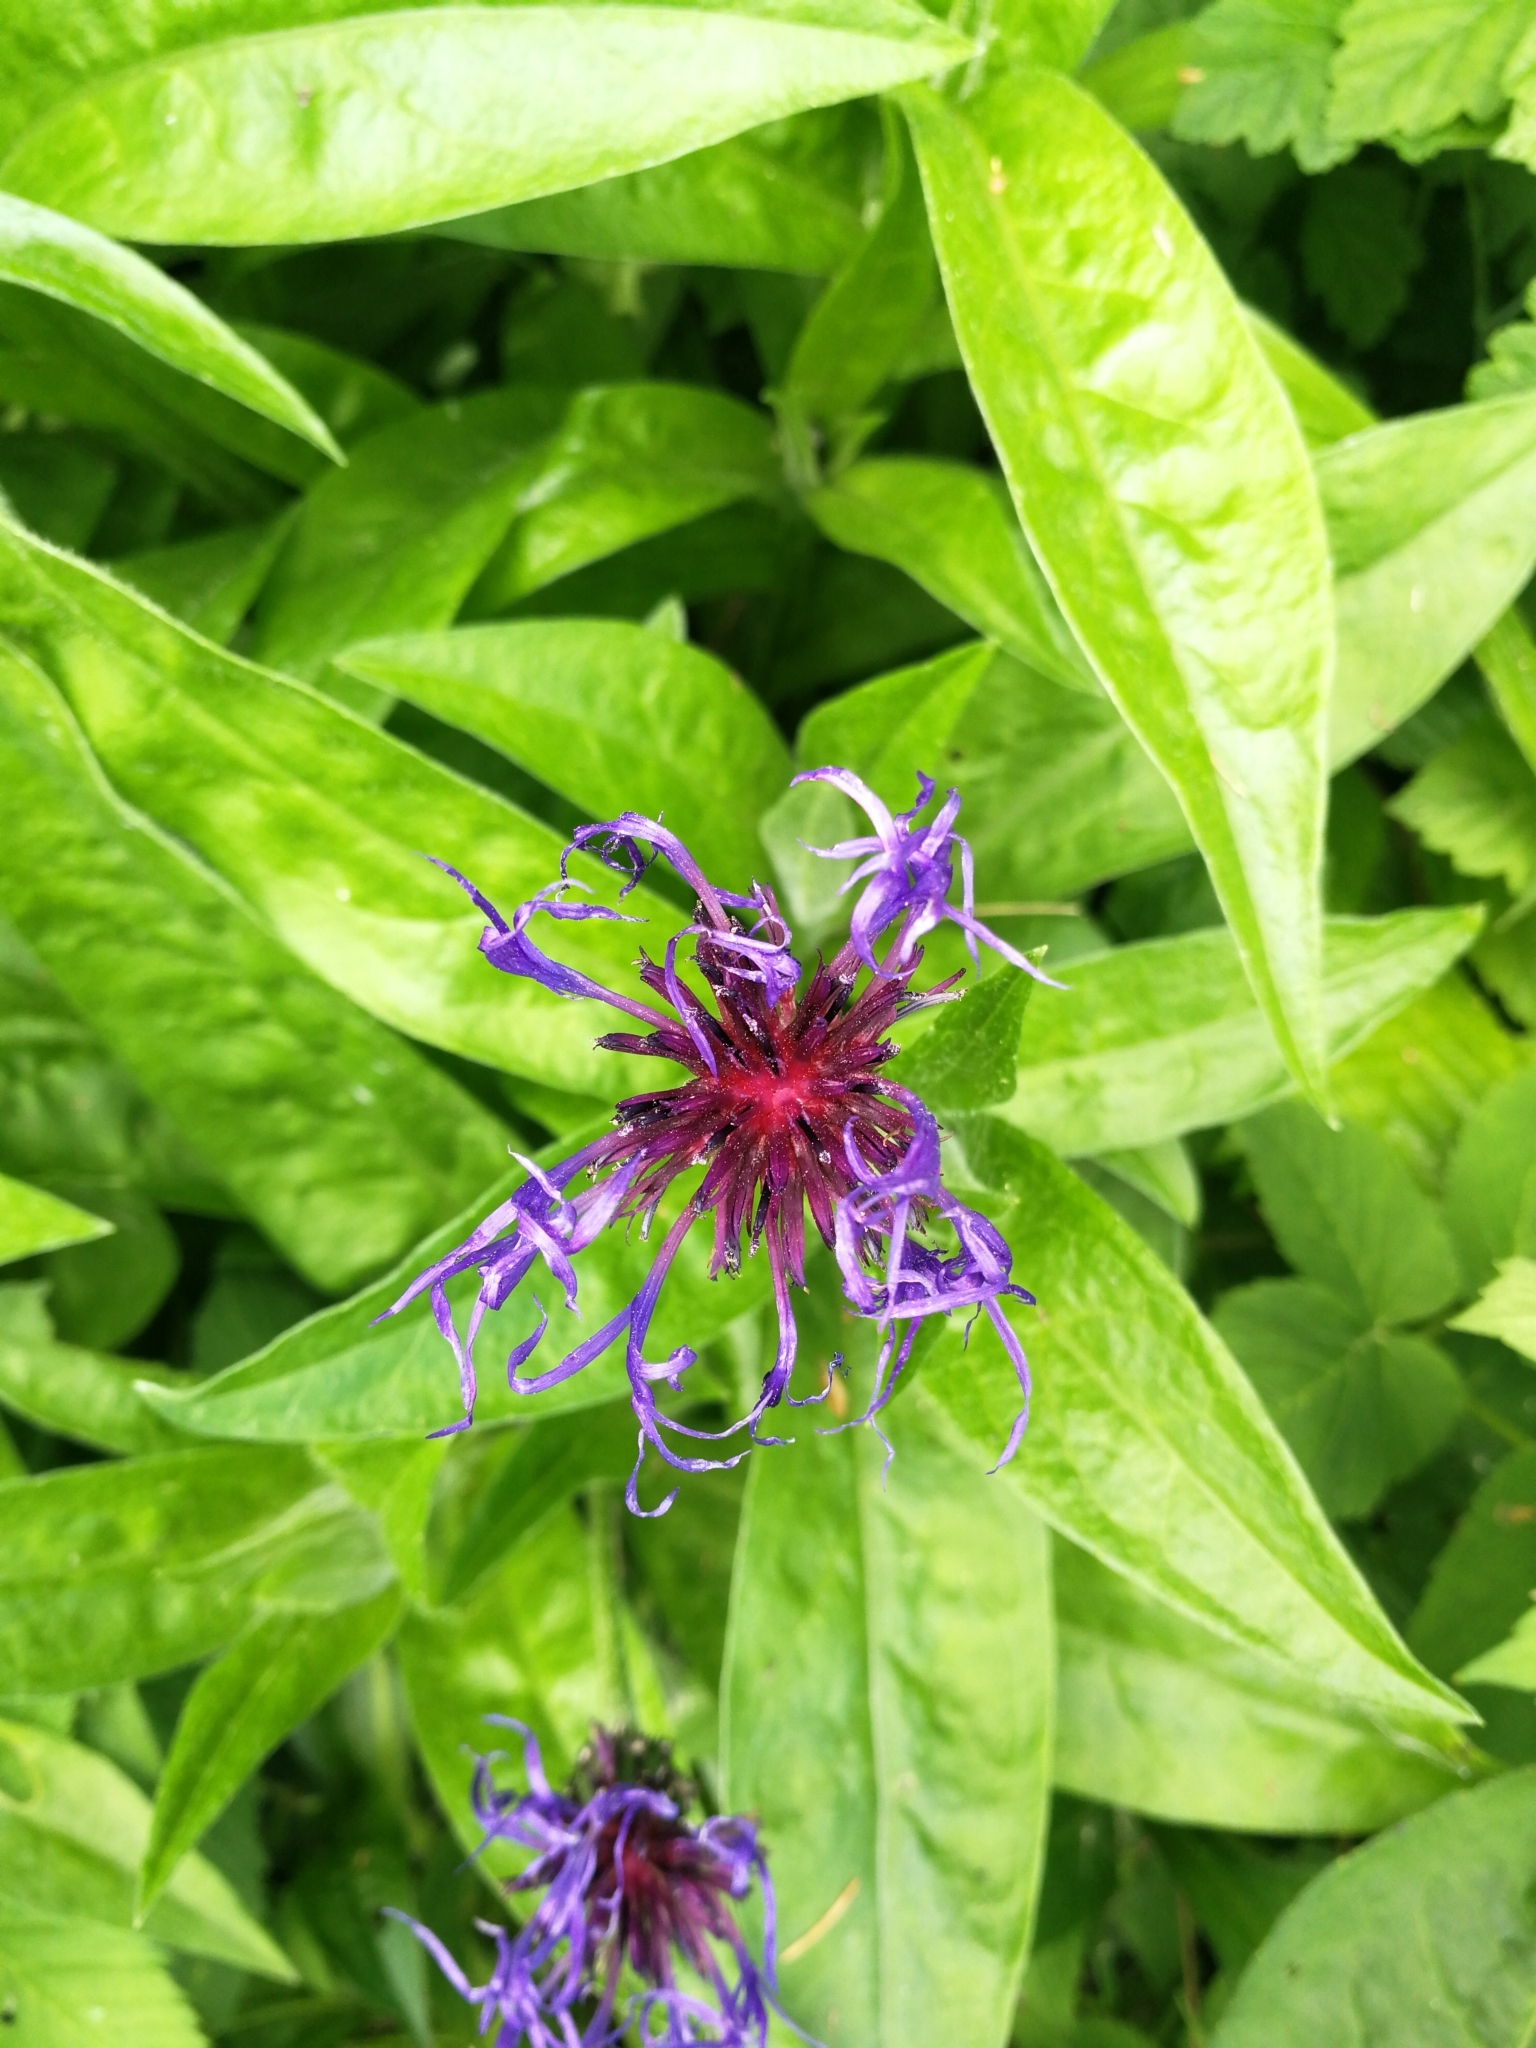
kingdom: Plantae
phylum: Tracheophyta
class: Magnoliopsida
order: Asterales
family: Asteraceae
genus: Centaurea
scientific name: Centaurea montana
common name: Perennial cornflower
